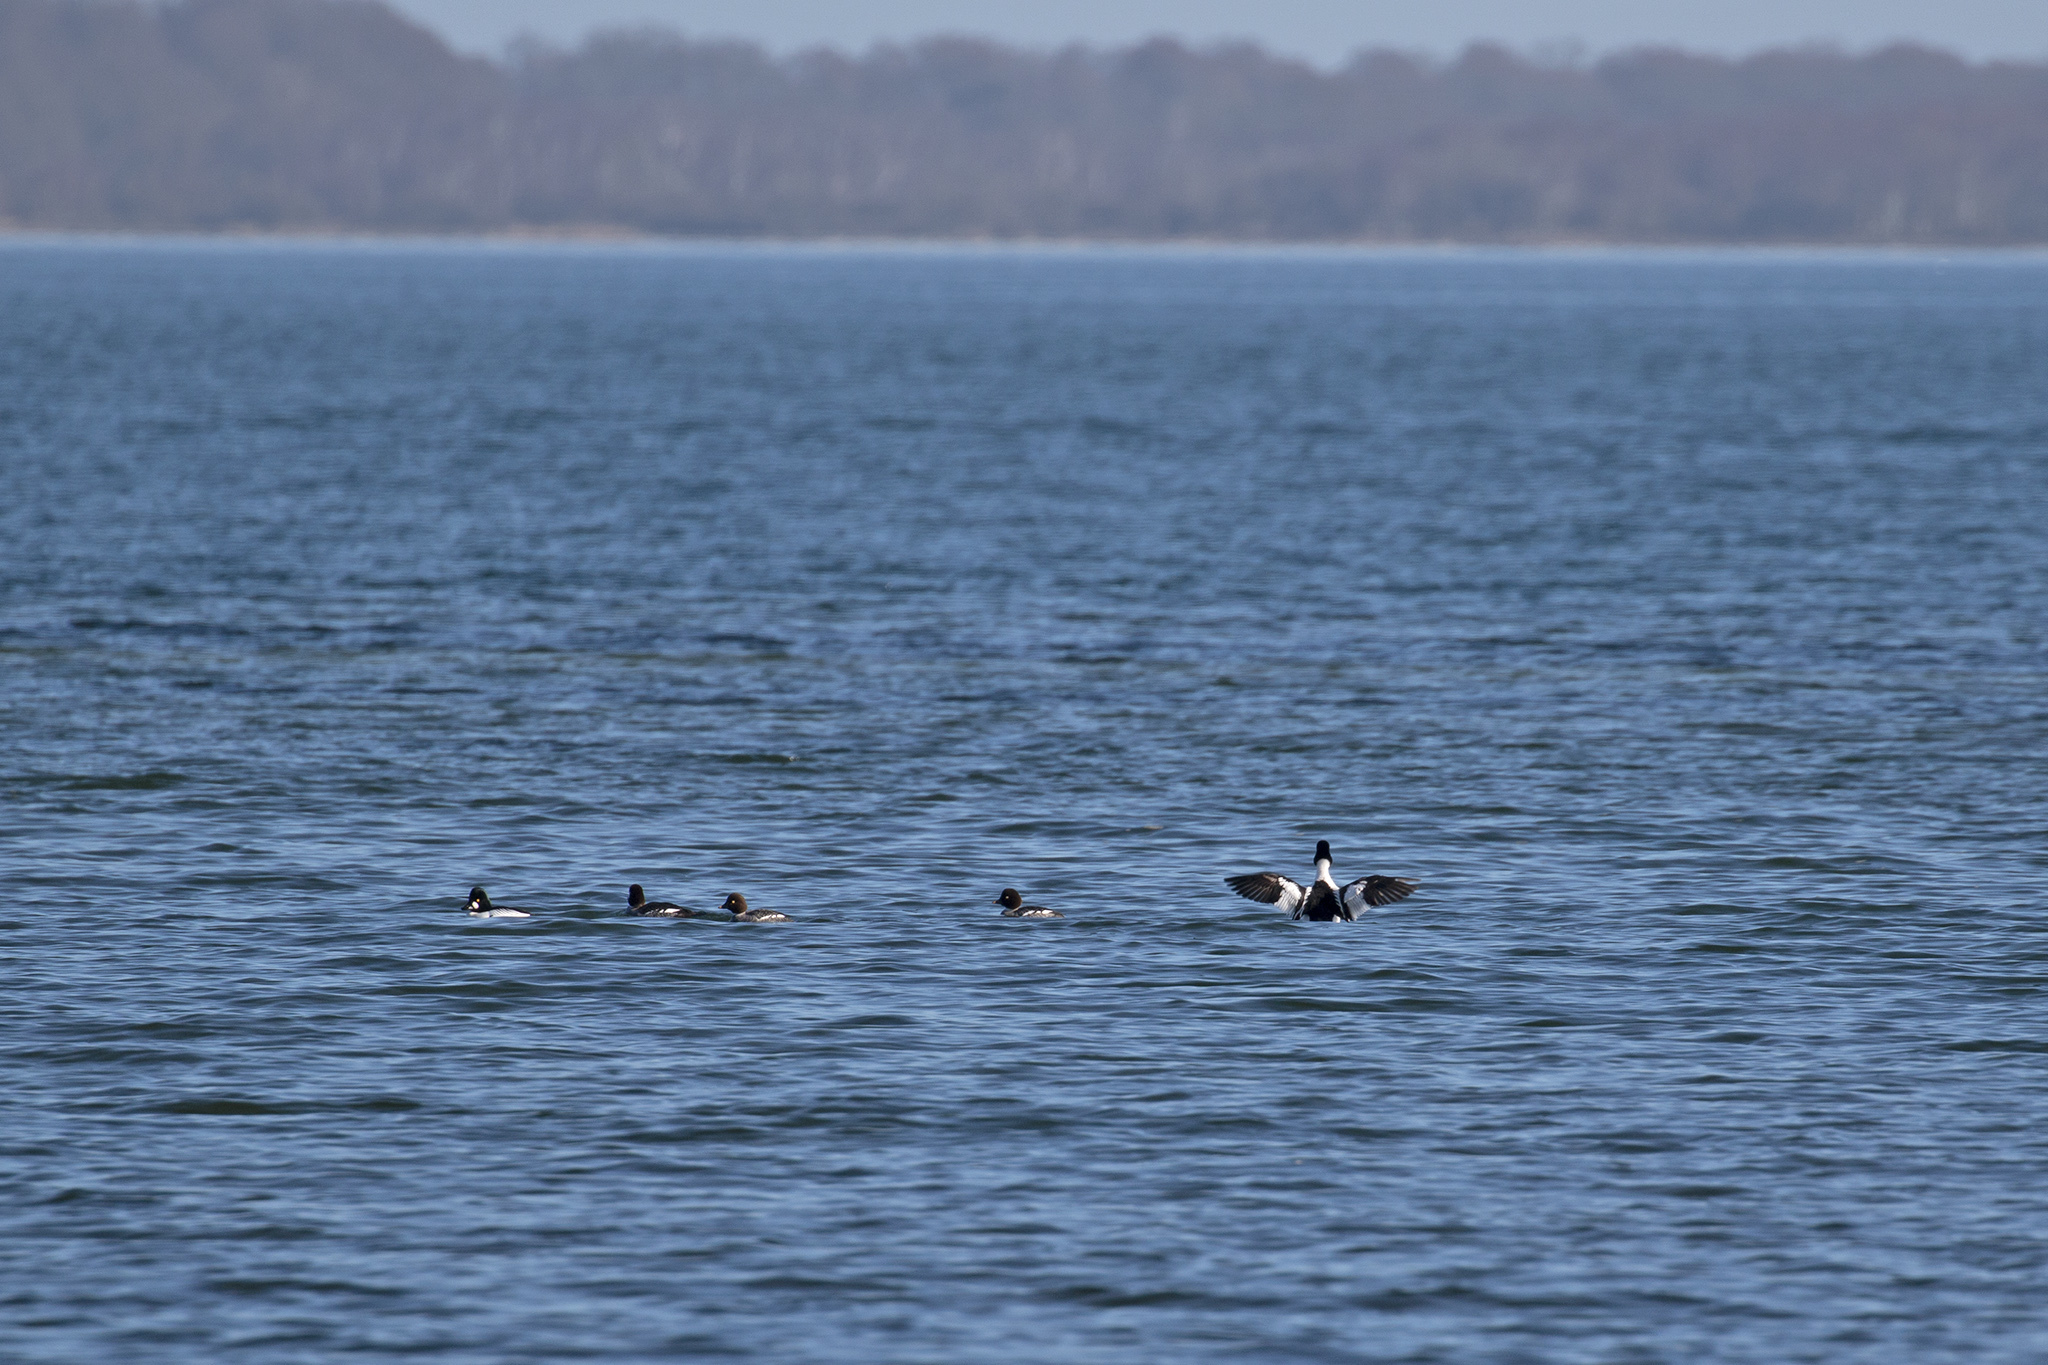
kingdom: Animalia
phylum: Chordata
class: Aves
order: Anseriformes
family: Anatidae
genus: Bucephala
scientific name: Bucephala clangula
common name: Common goldeneye
